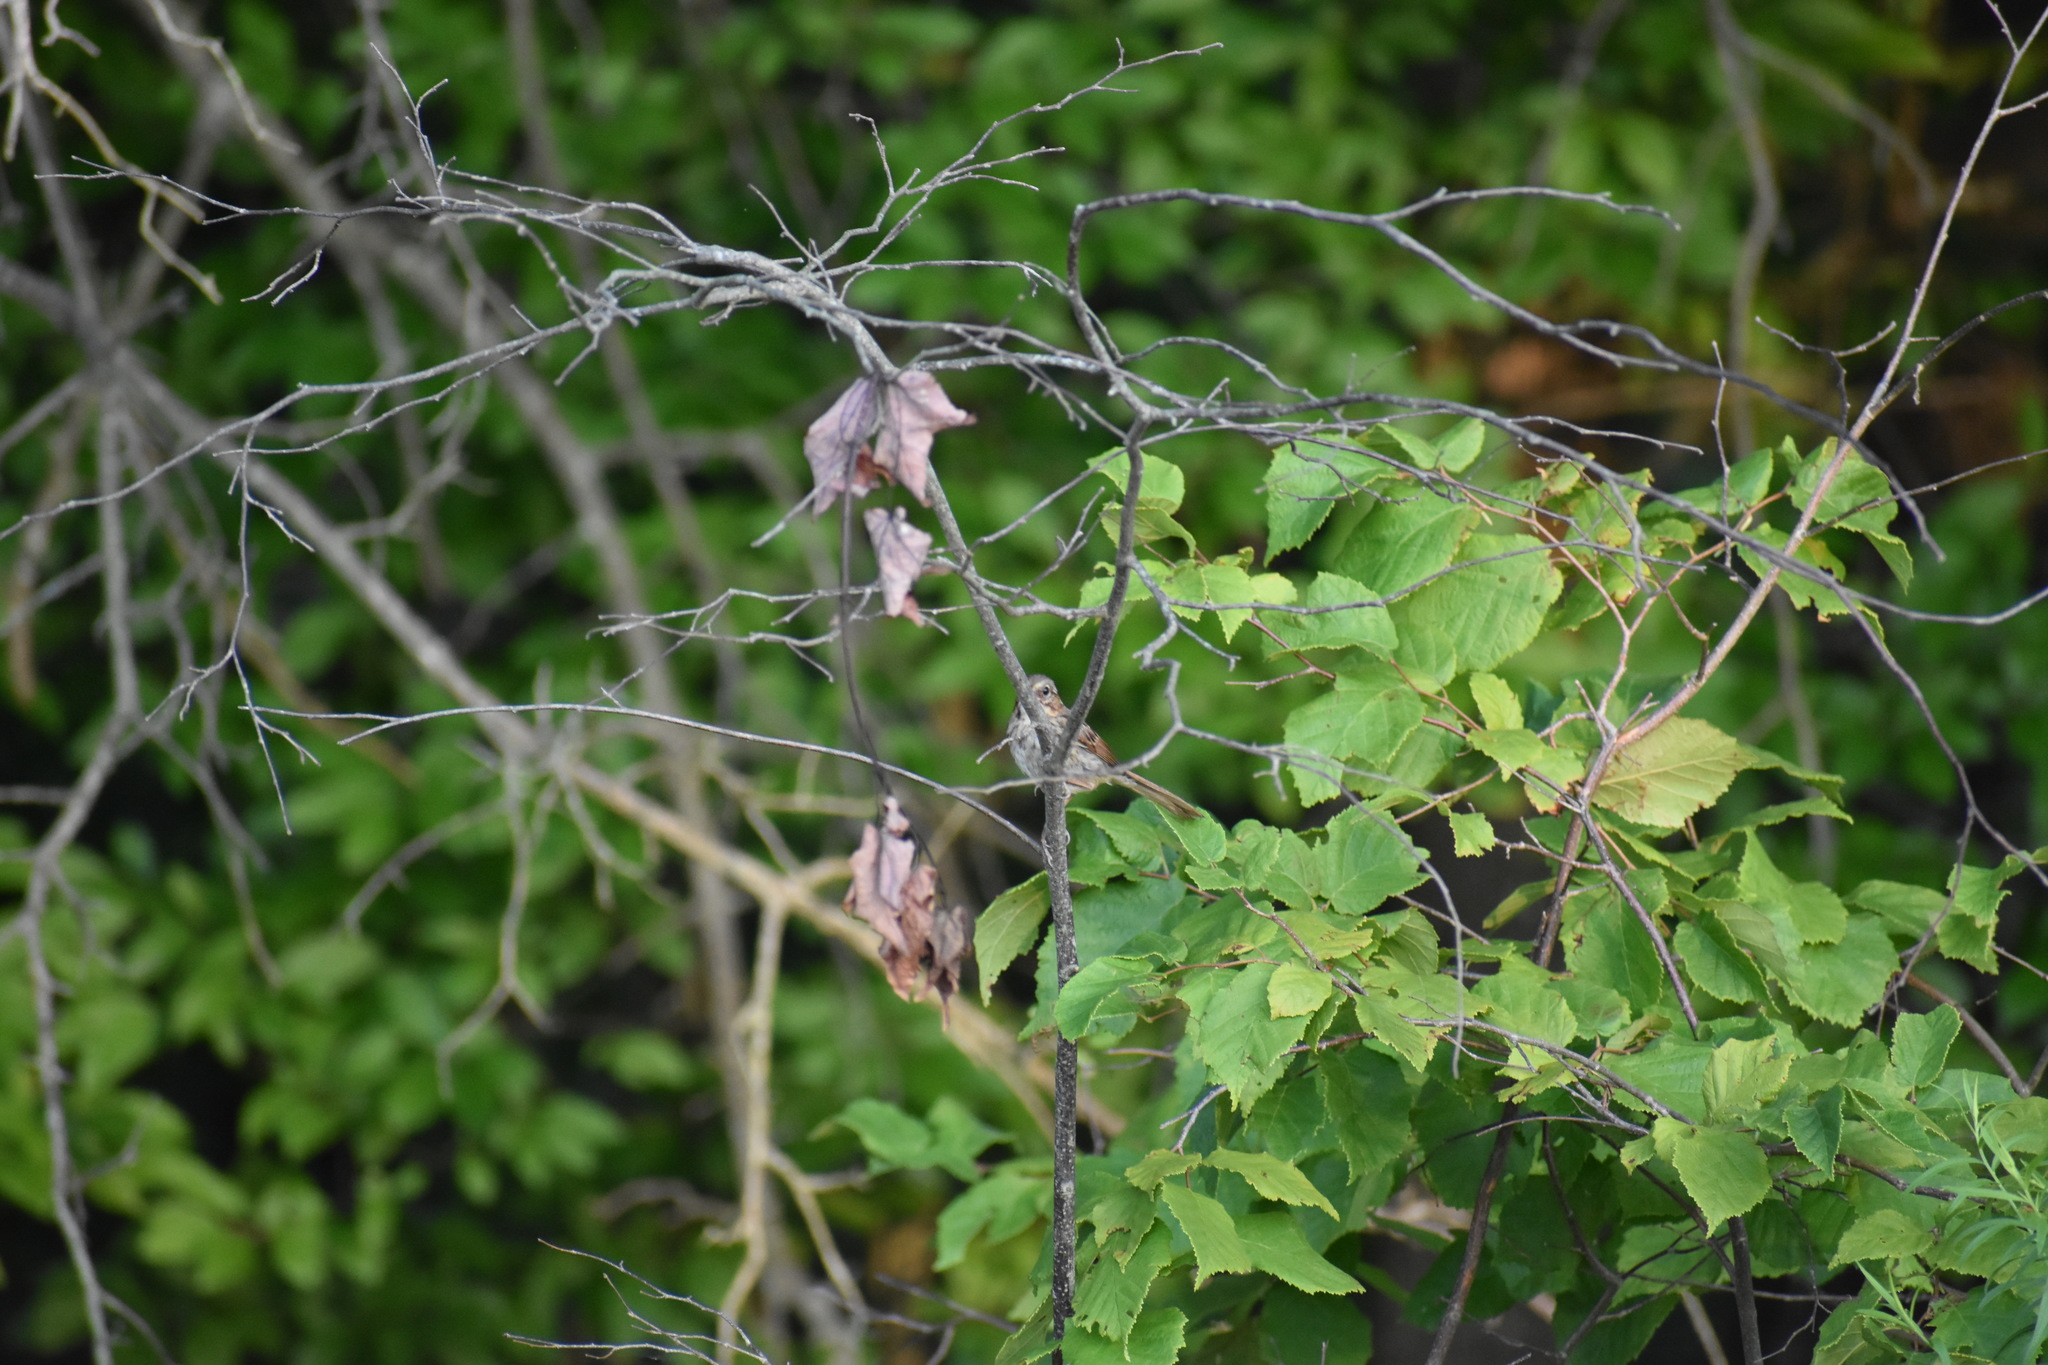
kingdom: Animalia
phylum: Chordata
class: Aves
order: Passeriformes
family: Passerellidae
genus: Melospiza
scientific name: Melospiza melodia
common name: Song sparrow
